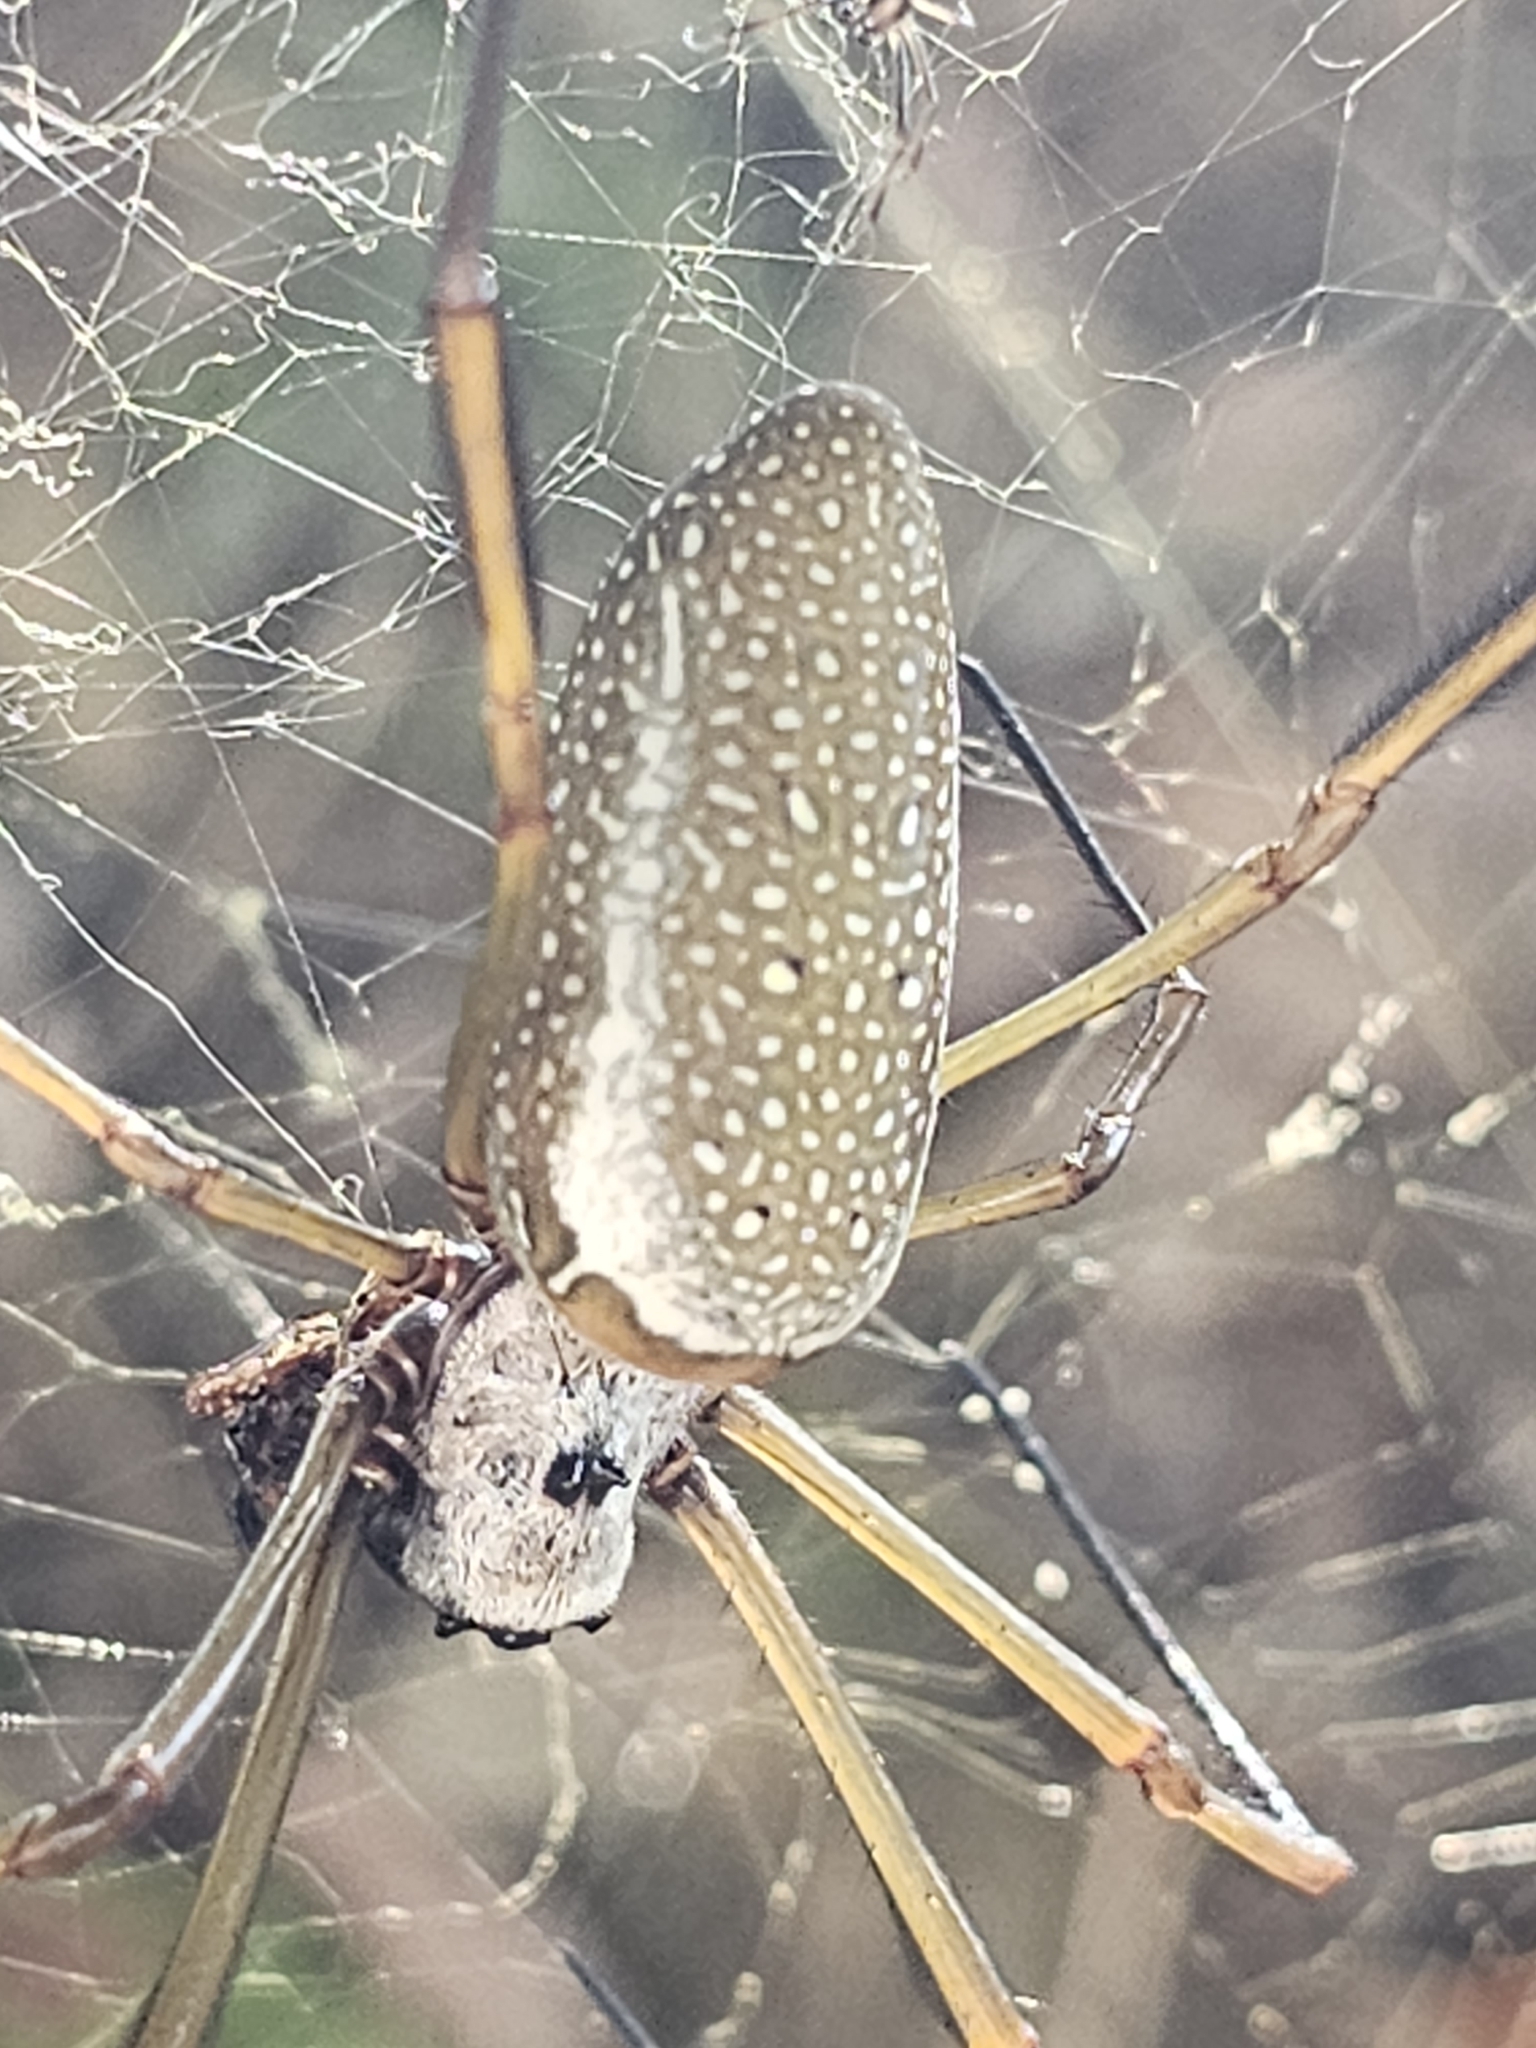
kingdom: Animalia
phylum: Arthropoda
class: Arachnida
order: Araneae
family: Araneidae
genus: Nephila
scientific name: Nephila cornuta
